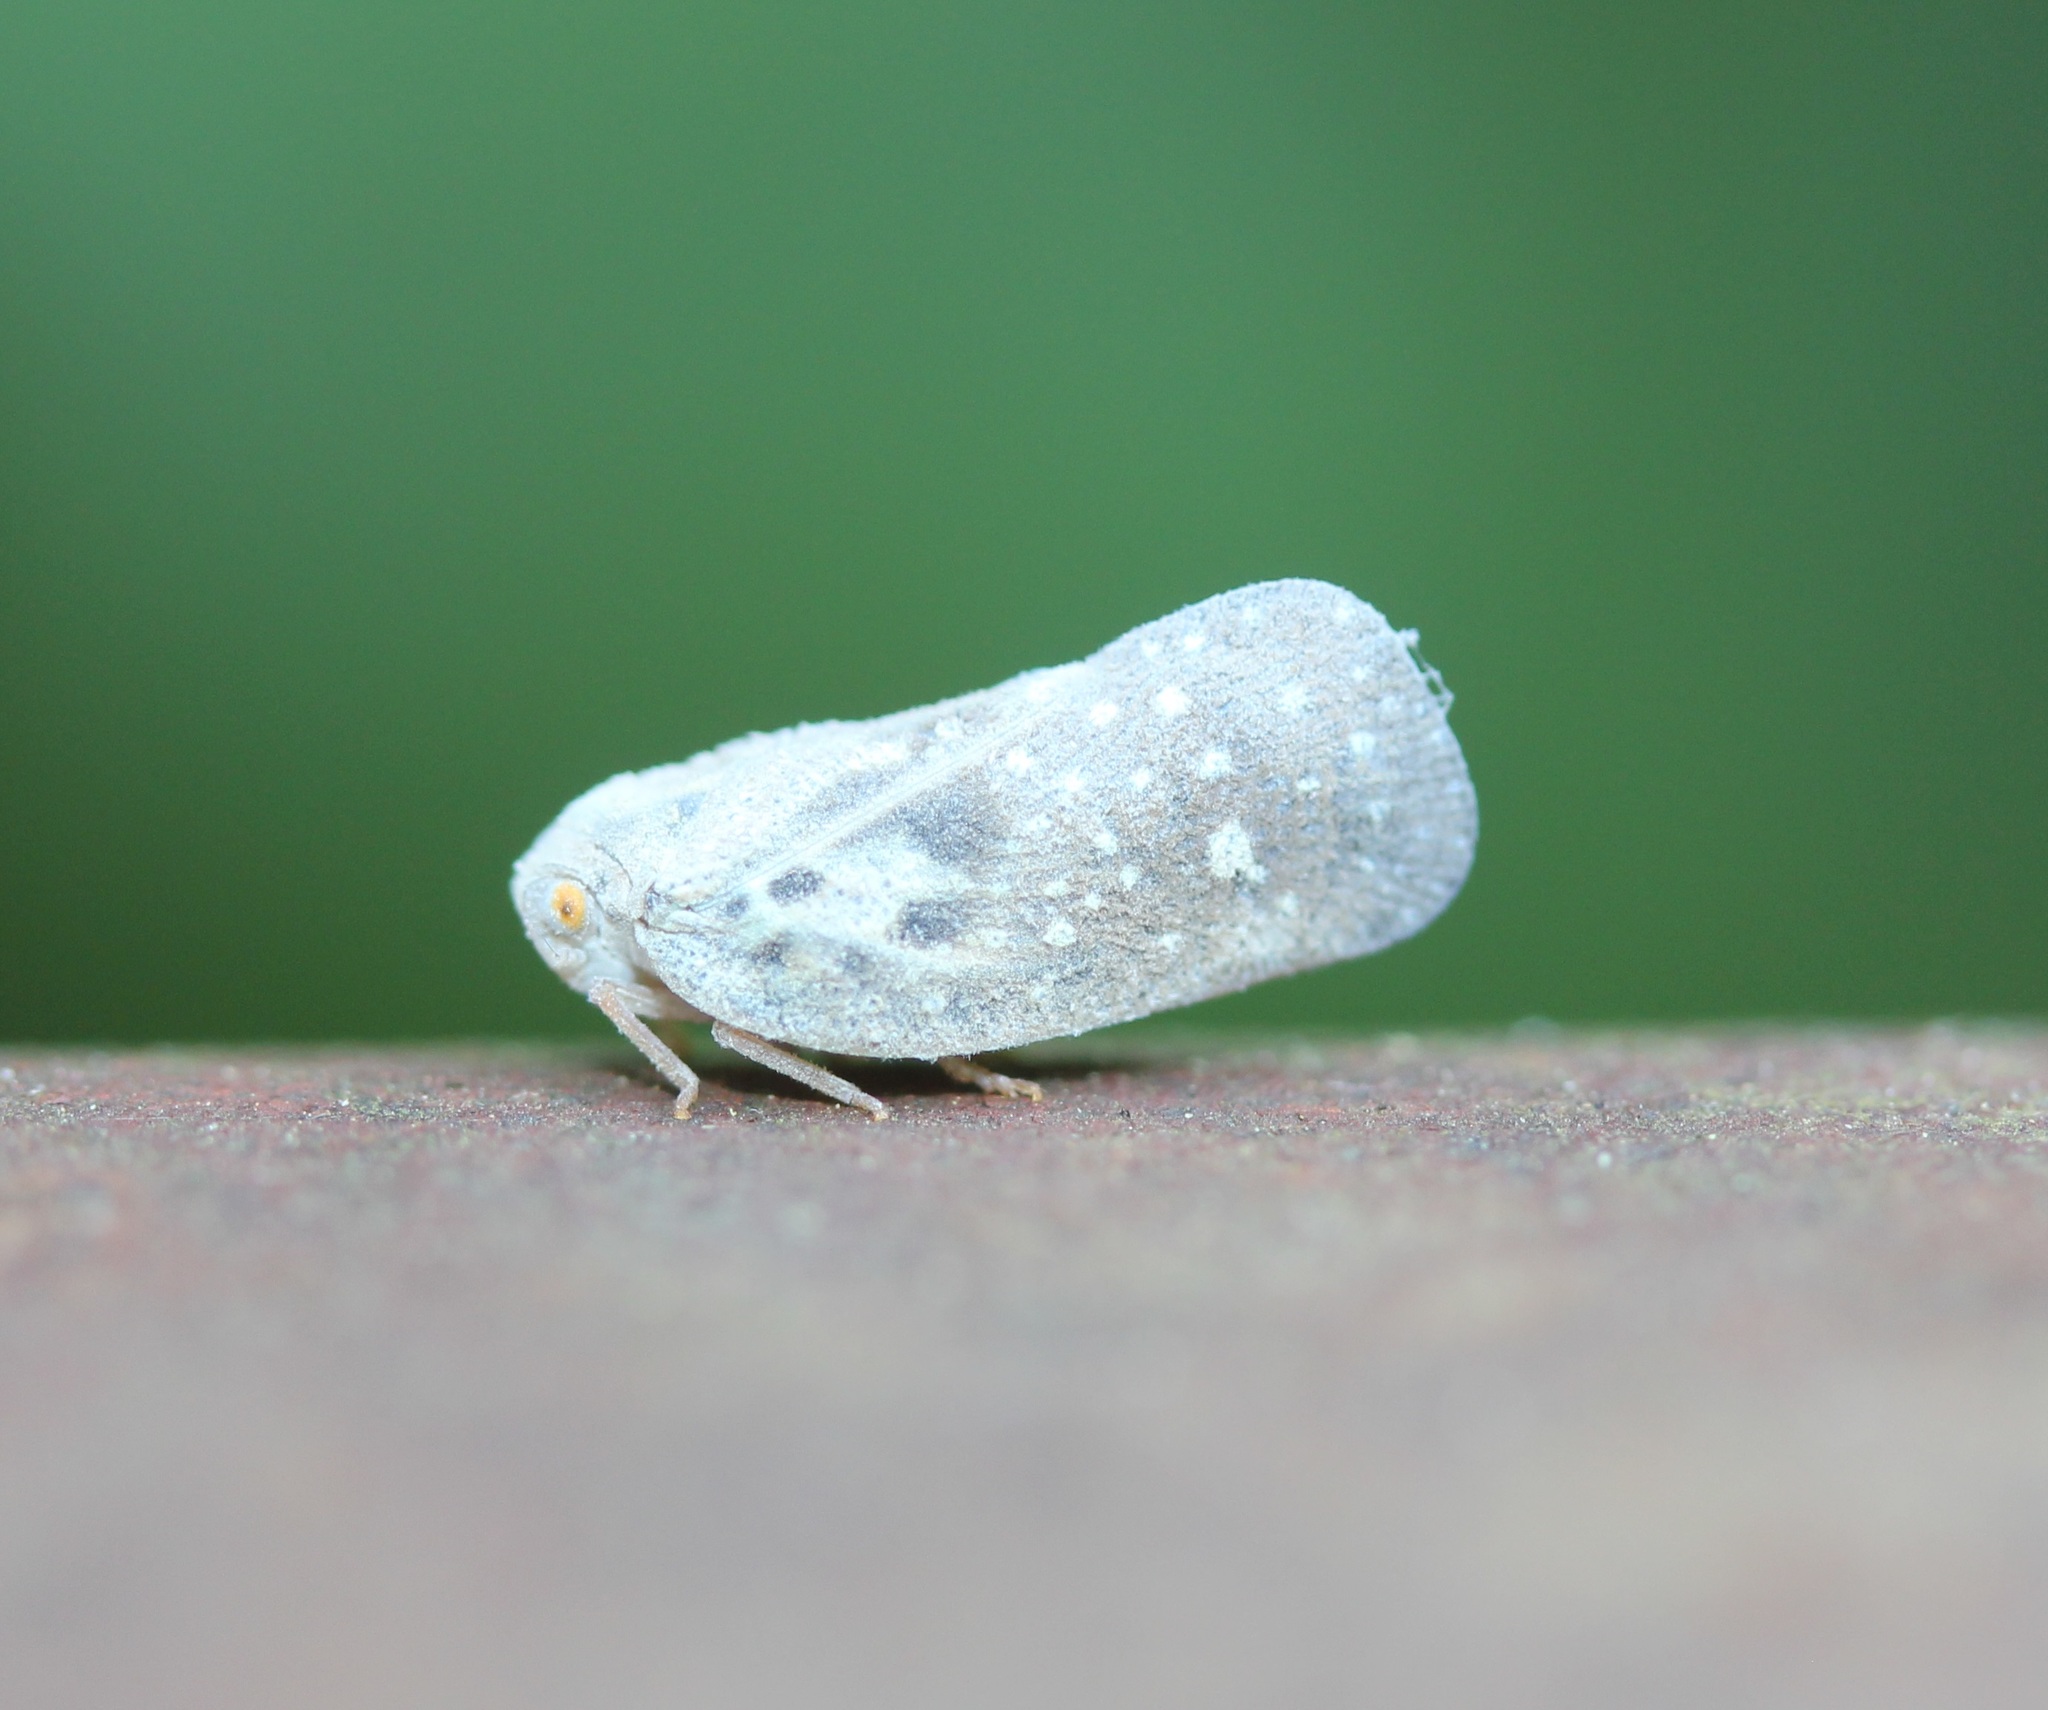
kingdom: Animalia
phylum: Arthropoda
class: Insecta
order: Hemiptera
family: Flatidae
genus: Metcalfa
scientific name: Metcalfa pruinosa
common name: Citrus flatid planthopper
